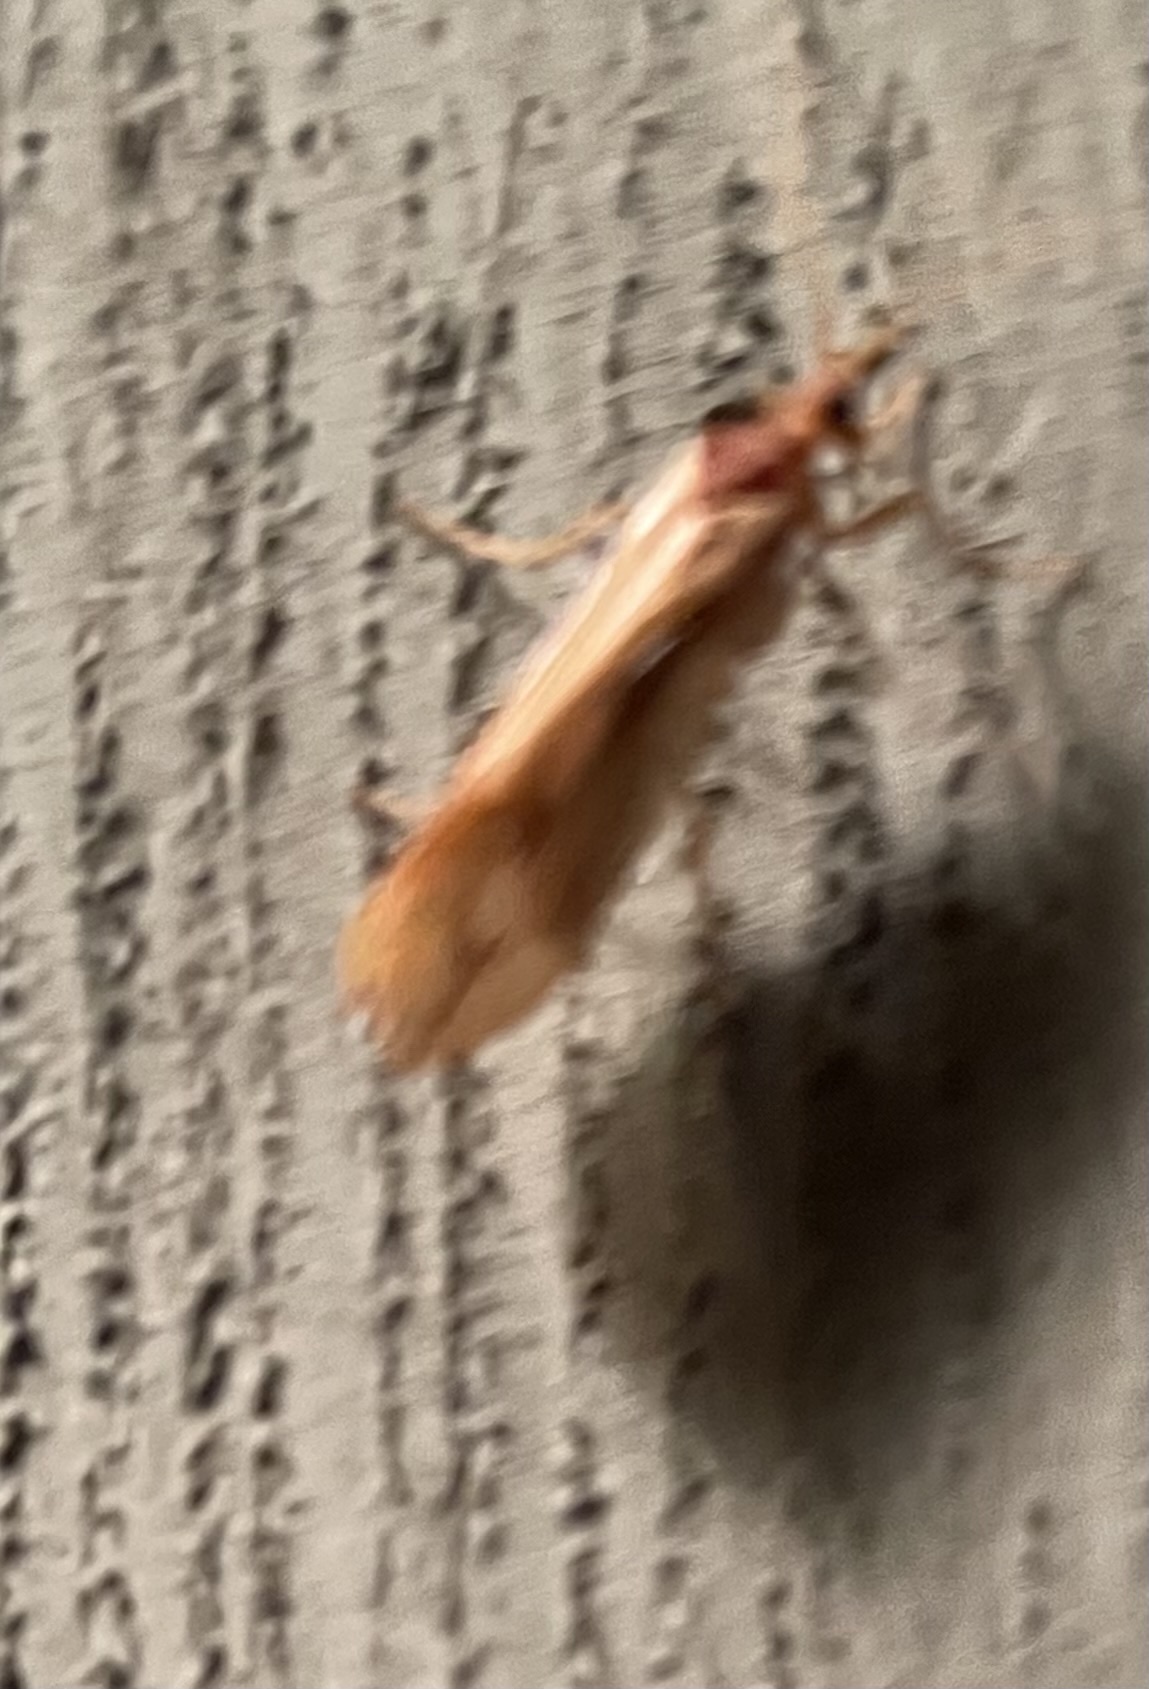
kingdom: Animalia
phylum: Arthropoda
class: Insecta
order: Trichoptera
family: Limnephilidae
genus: Platycentropus
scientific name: Platycentropus radiatus
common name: Chocolate-and-cream sedge
